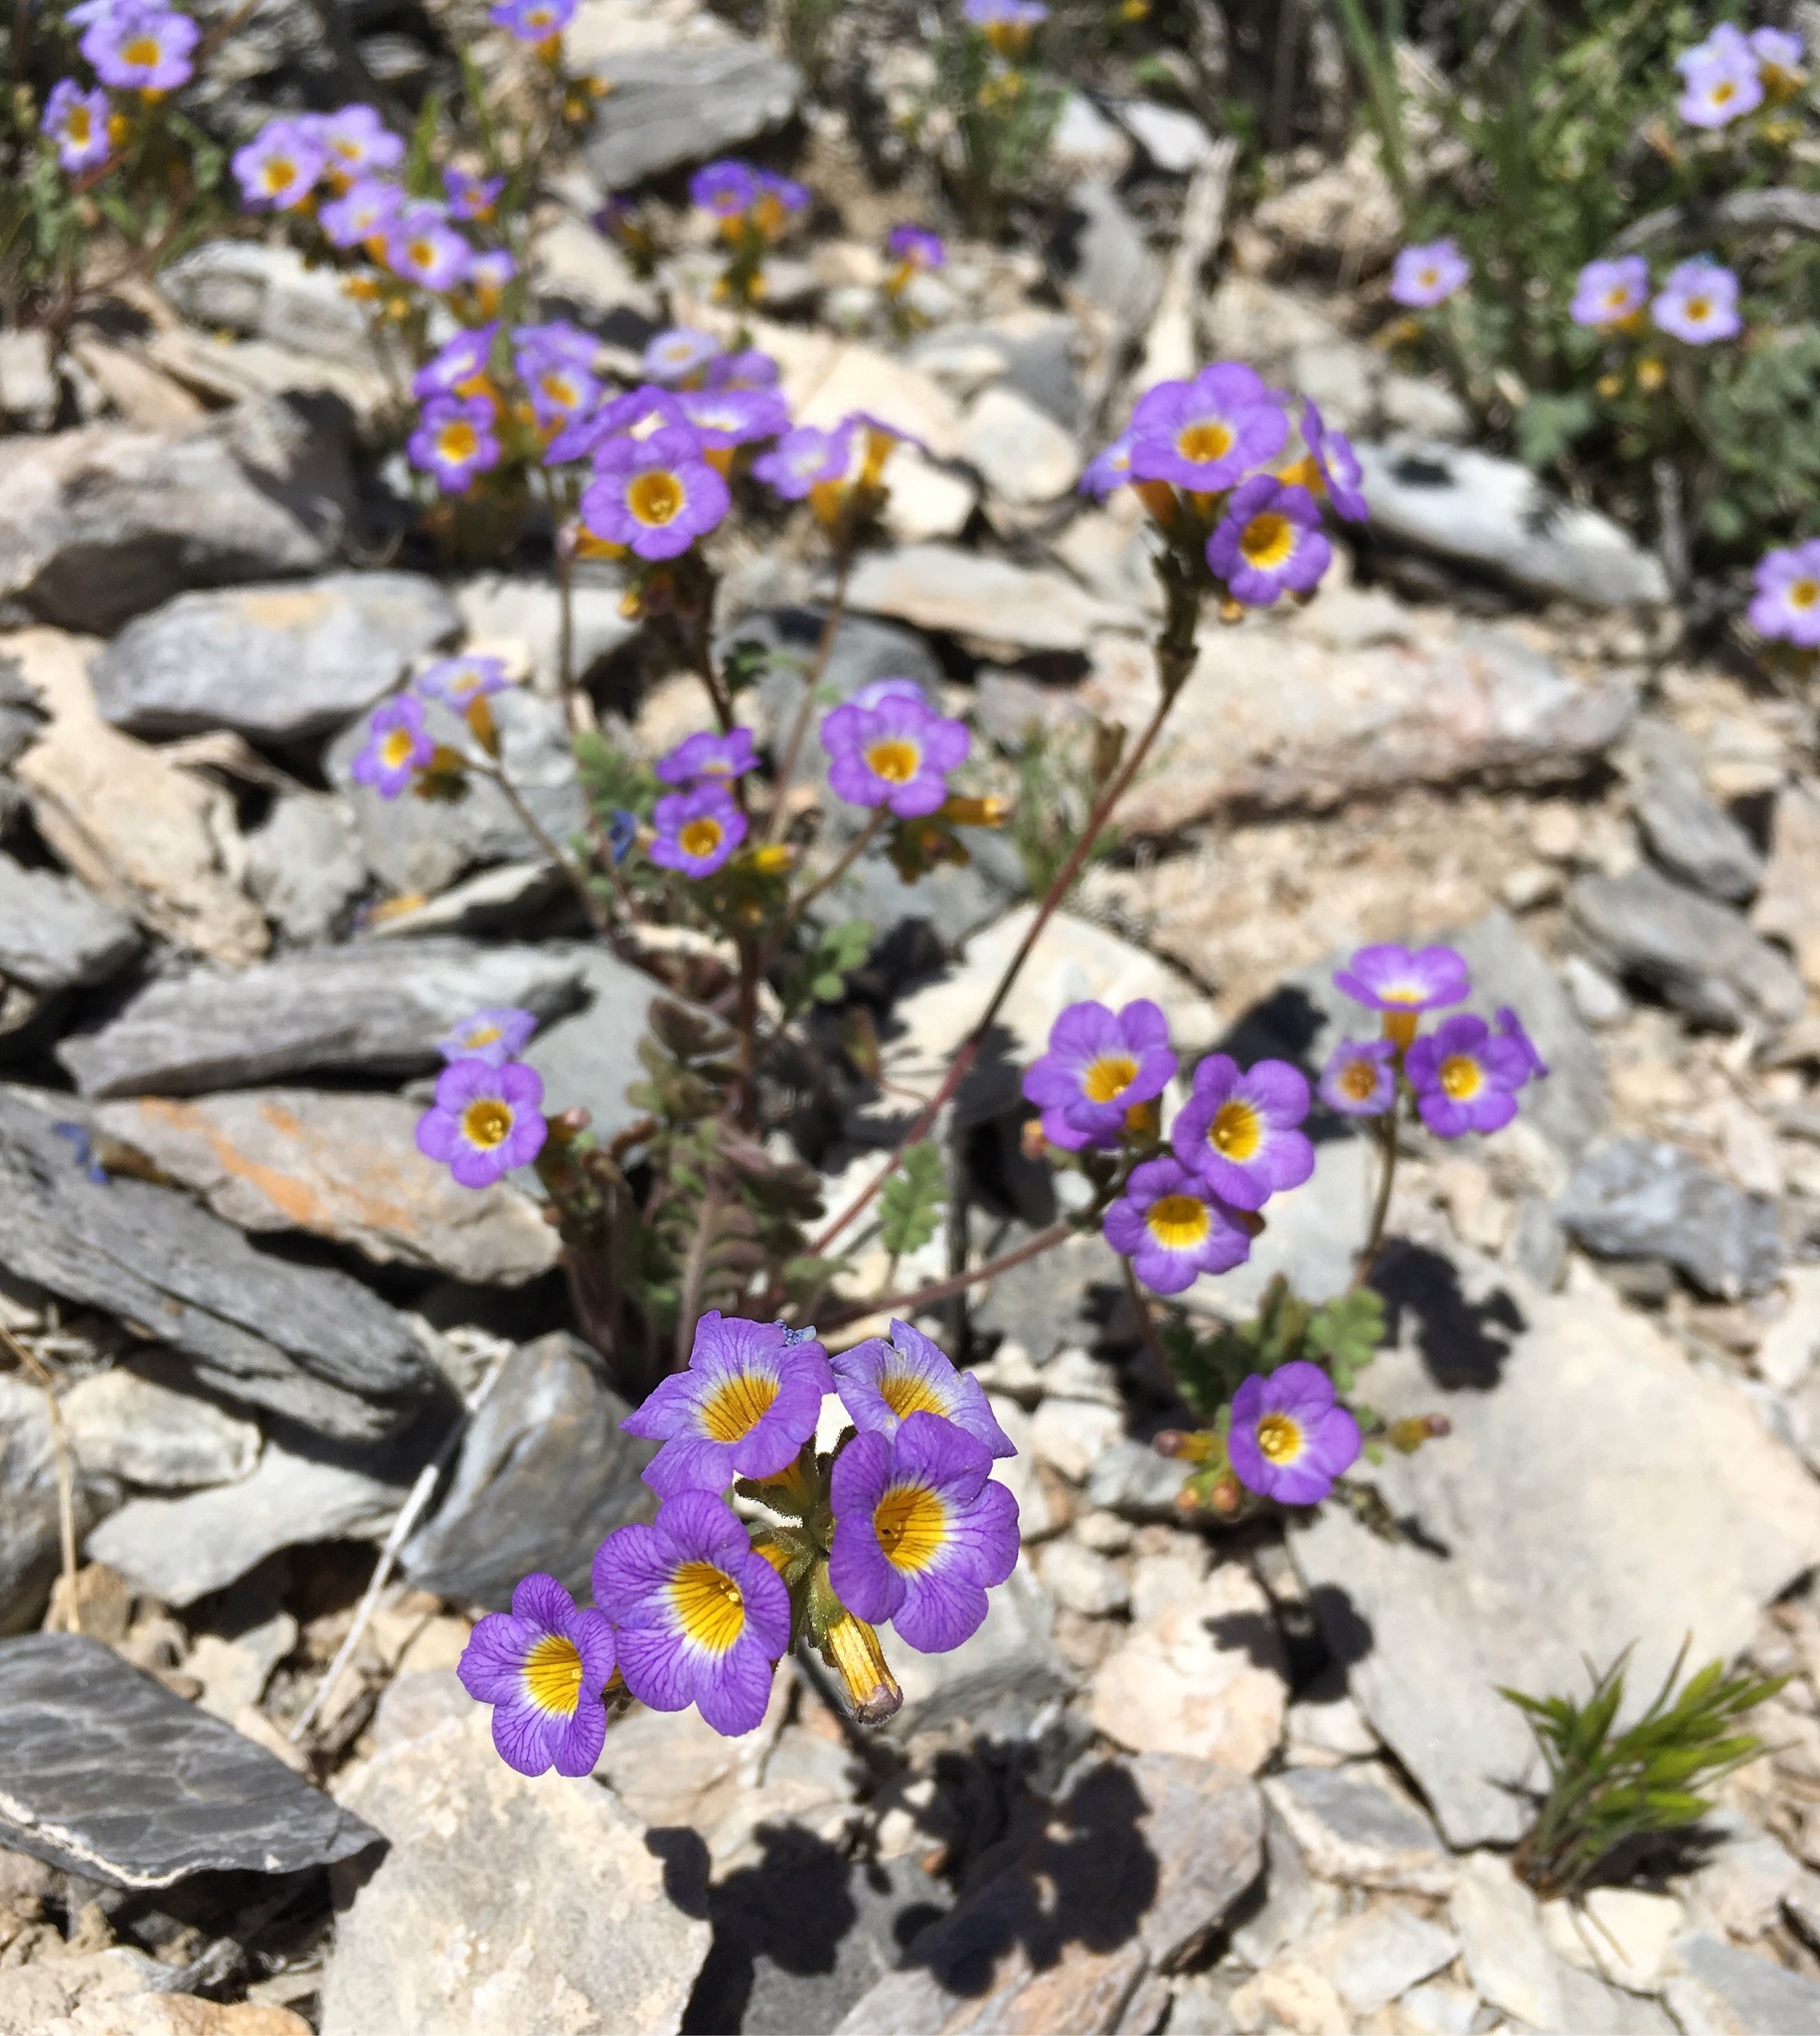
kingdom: Plantae
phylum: Tracheophyta
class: Magnoliopsida
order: Boraginales
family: Hydrophyllaceae
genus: Phacelia
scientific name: Phacelia fremontii
